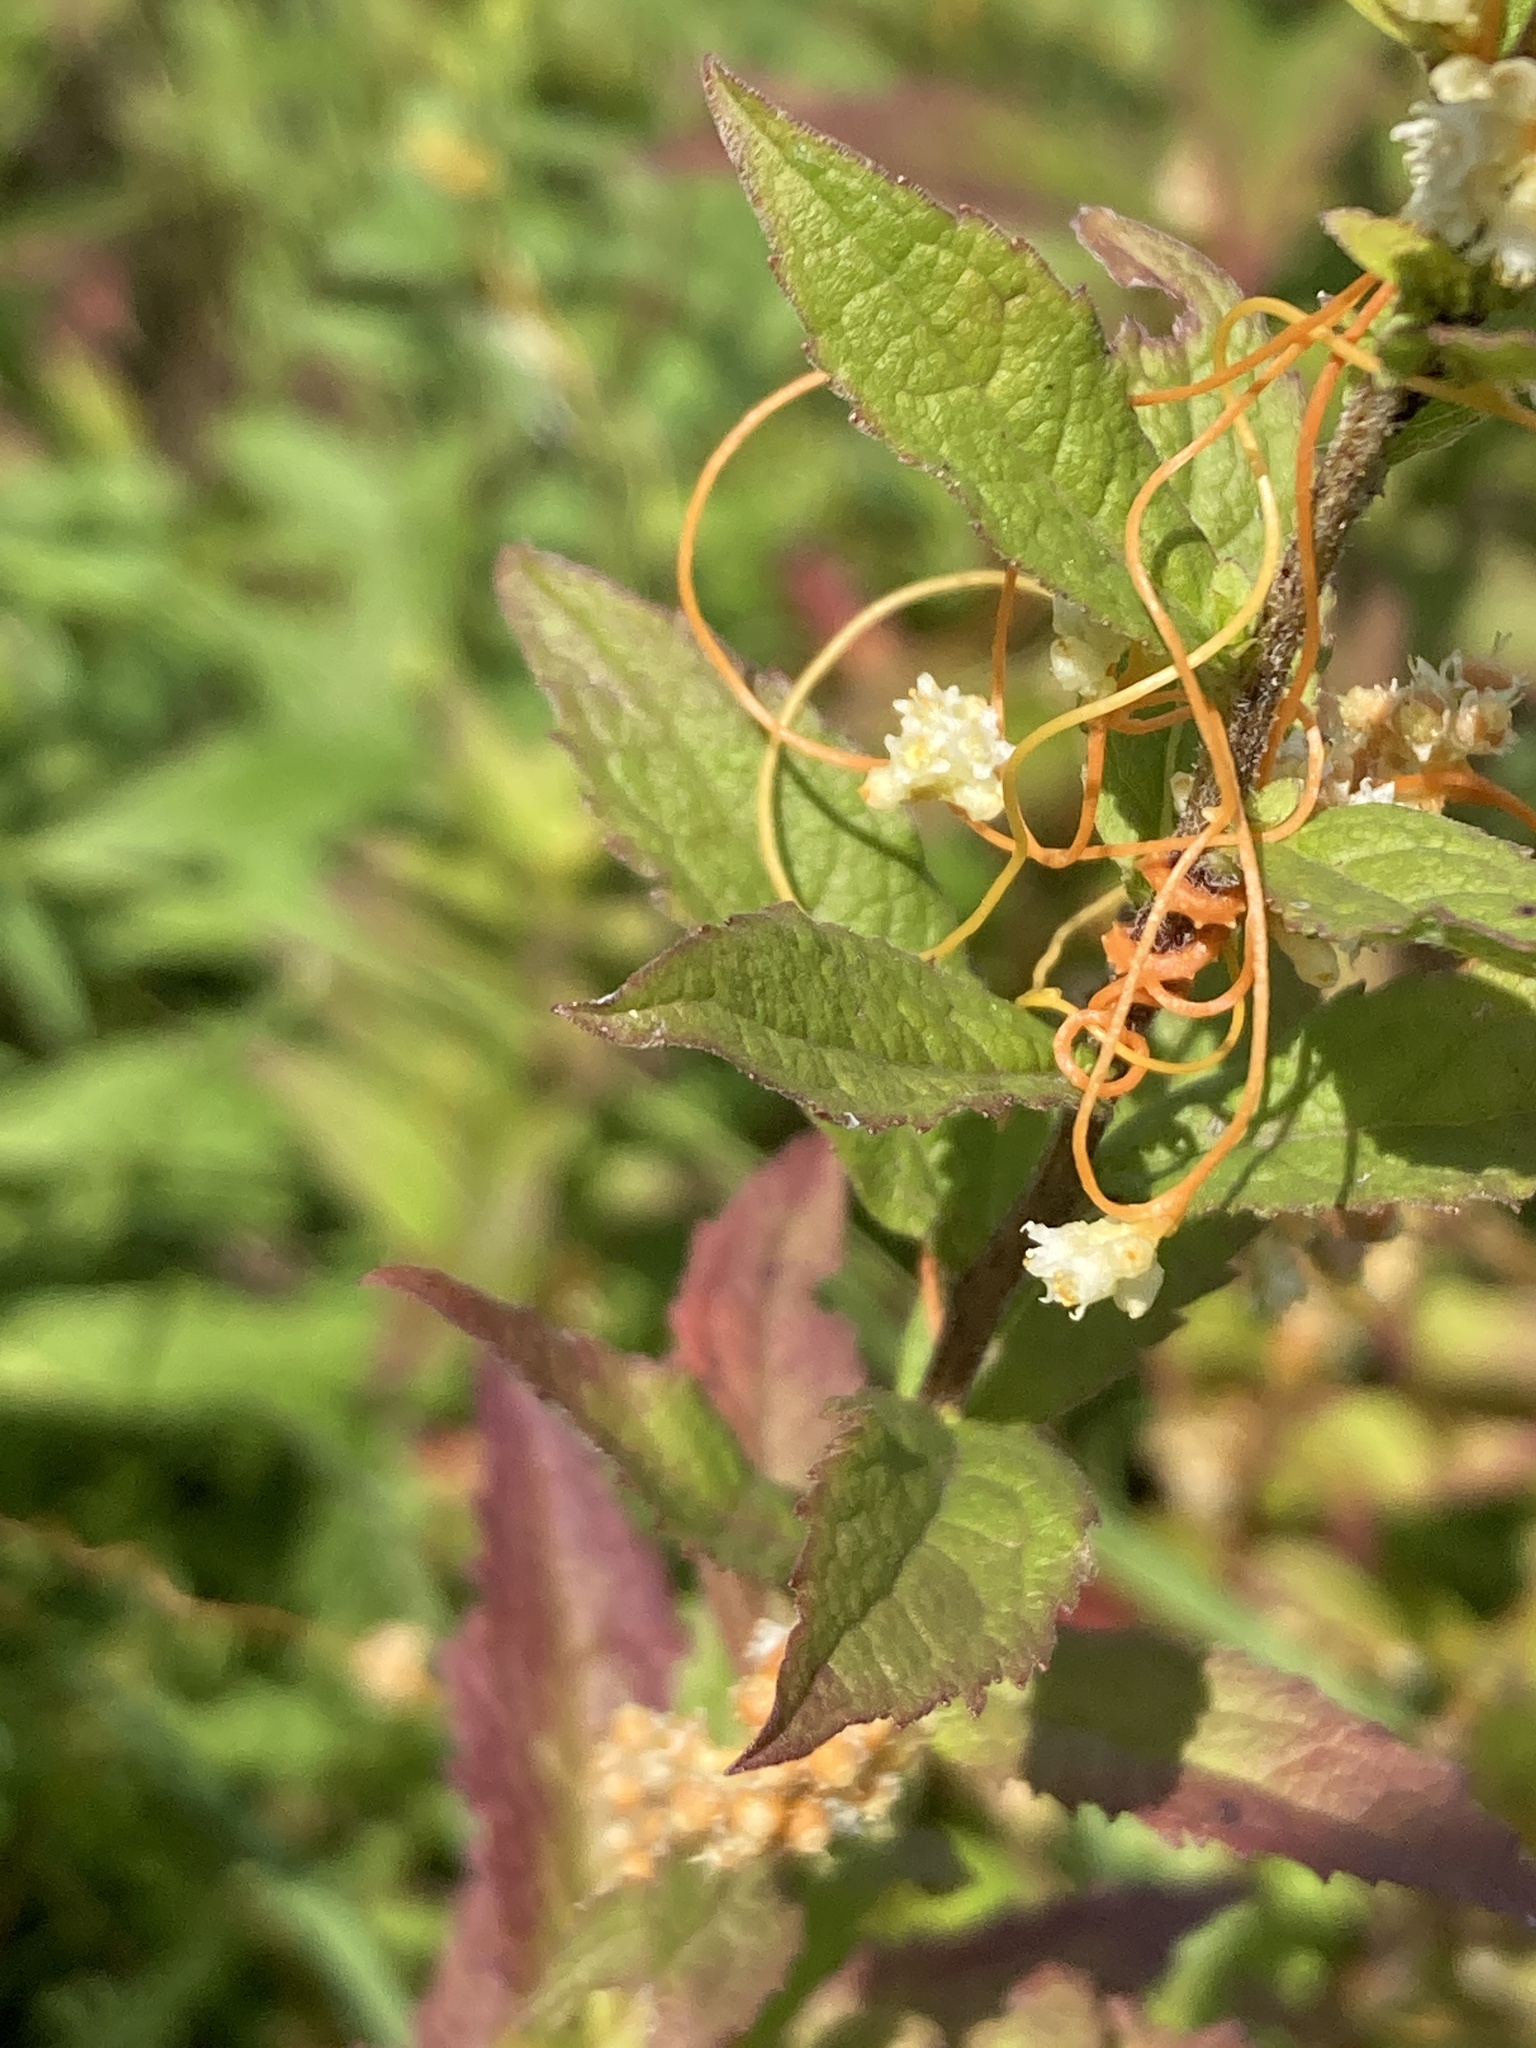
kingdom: Plantae
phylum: Tracheophyta
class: Magnoliopsida
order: Solanales
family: Convolvulaceae
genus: Cuscuta
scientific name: Cuscuta pentagona
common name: Fiveangled dodder
